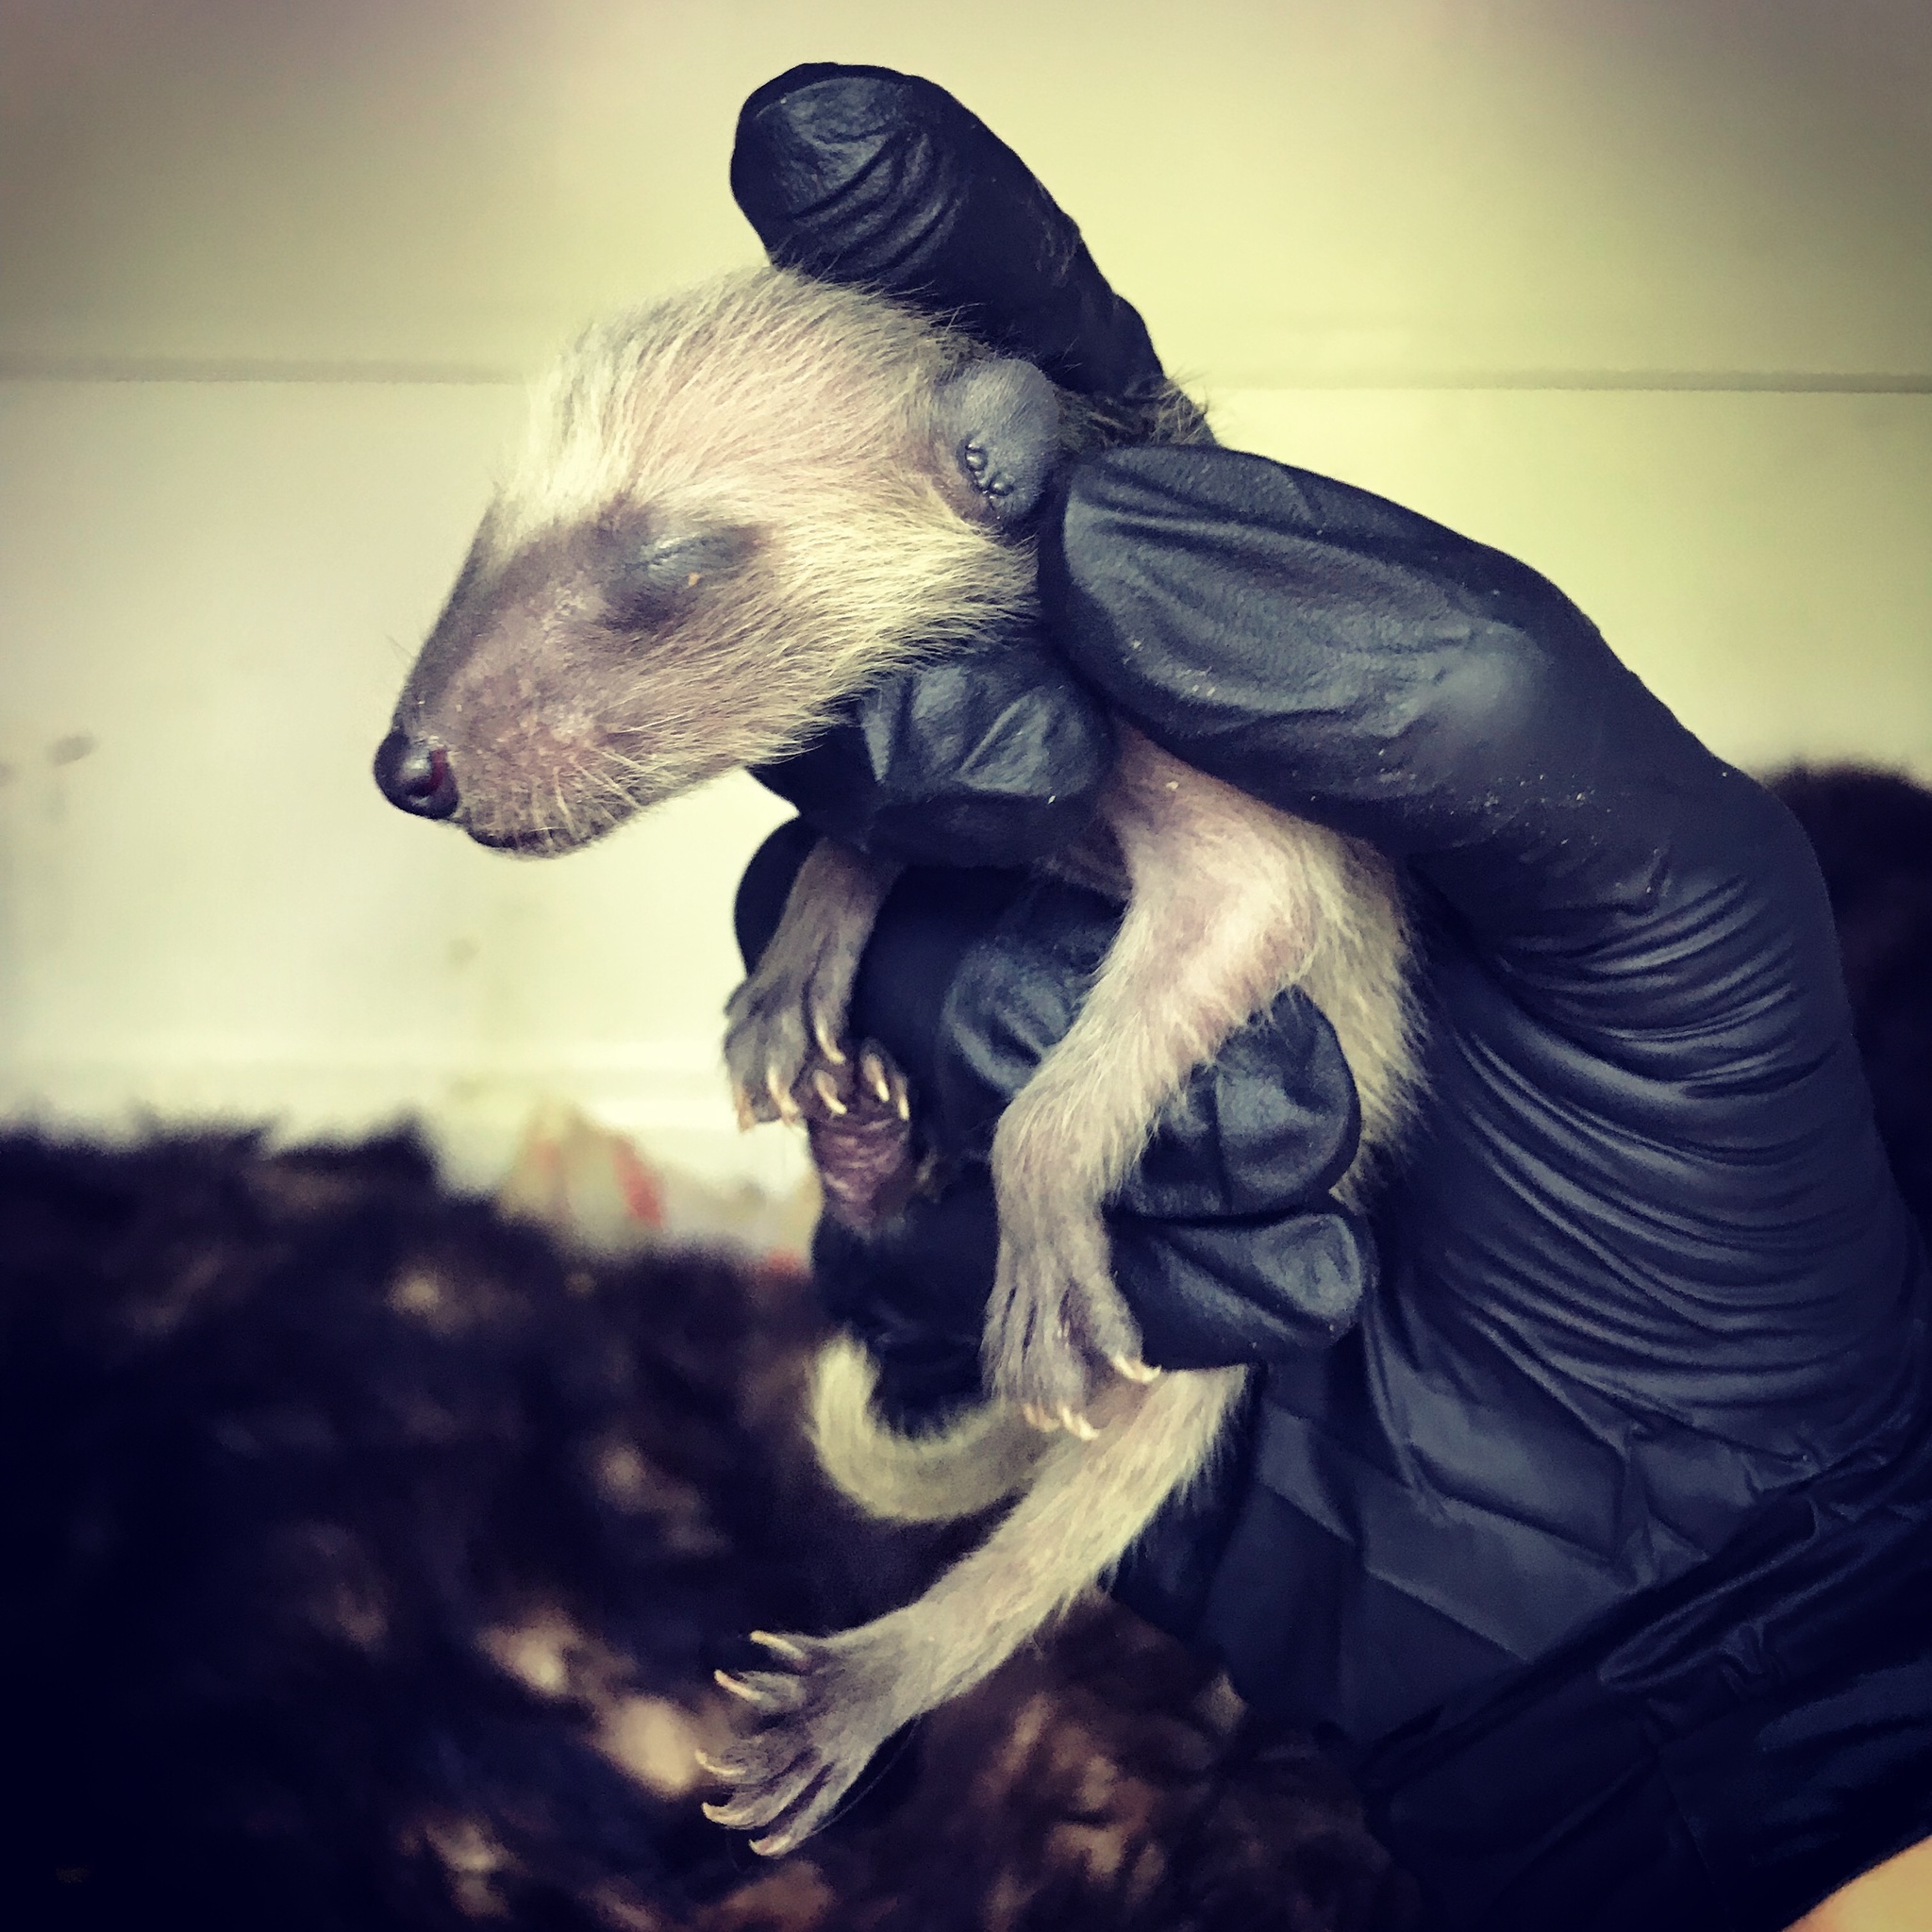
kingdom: Animalia
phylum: Chordata
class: Mammalia
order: Carnivora
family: Procyonidae
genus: Procyon
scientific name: Procyon lotor
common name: Raccoon
